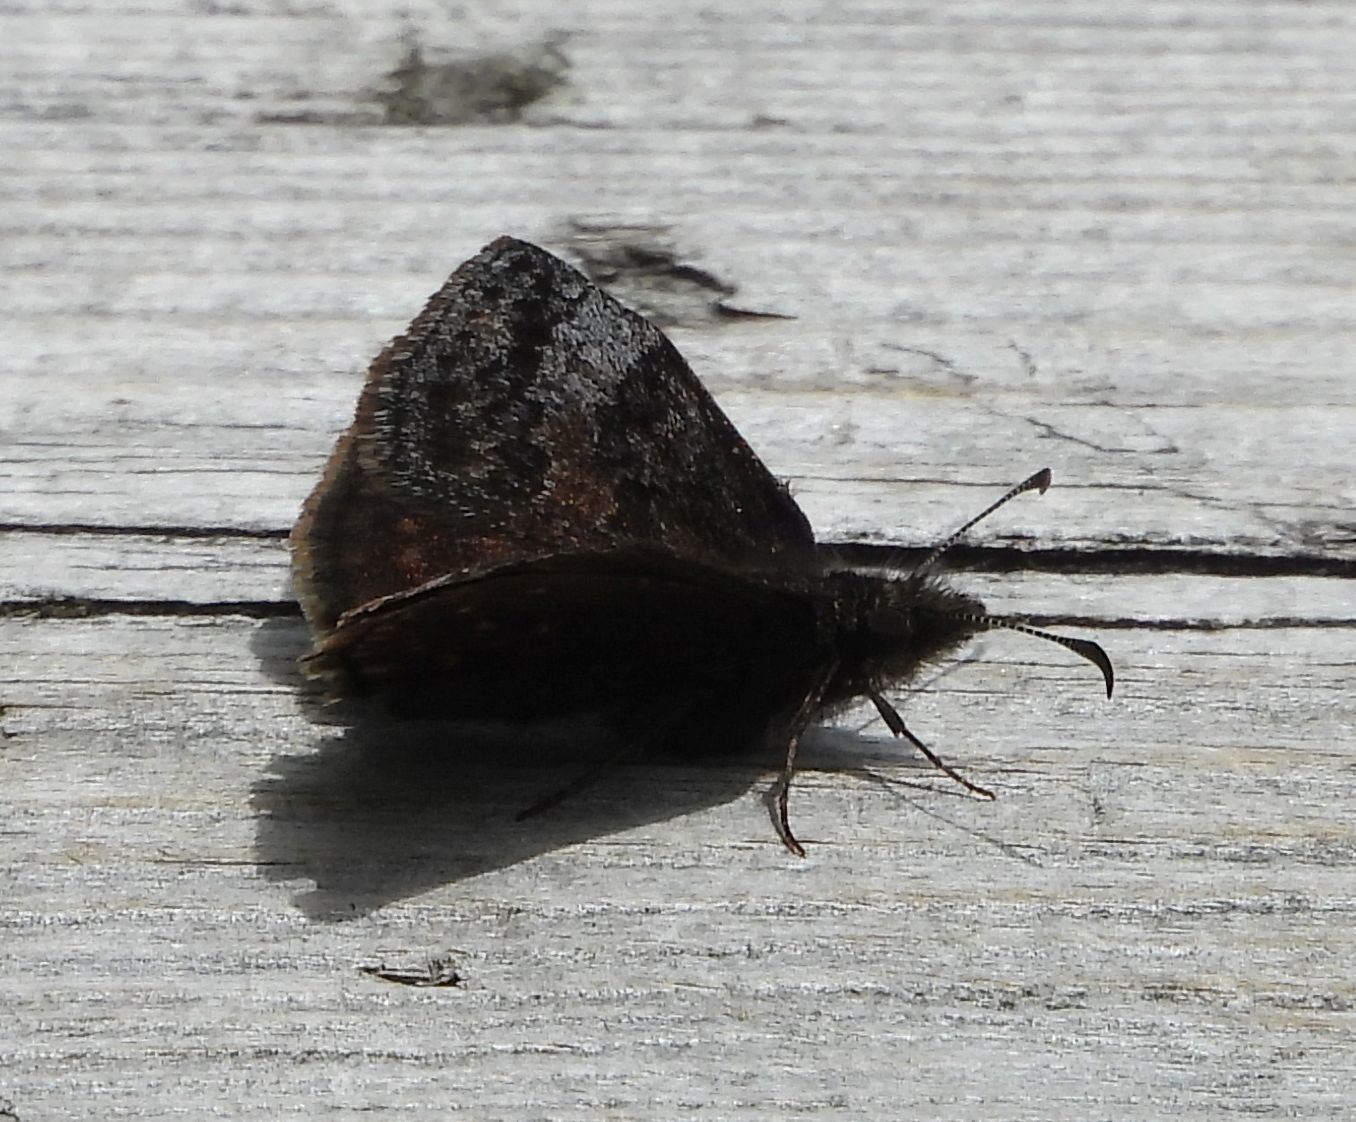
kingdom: Animalia
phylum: Arthropoda
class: Insecta
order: Lepidoptera
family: Hesperiidae
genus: Erynnis
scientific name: Erynnis icelus
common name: Dreamy duskywing
